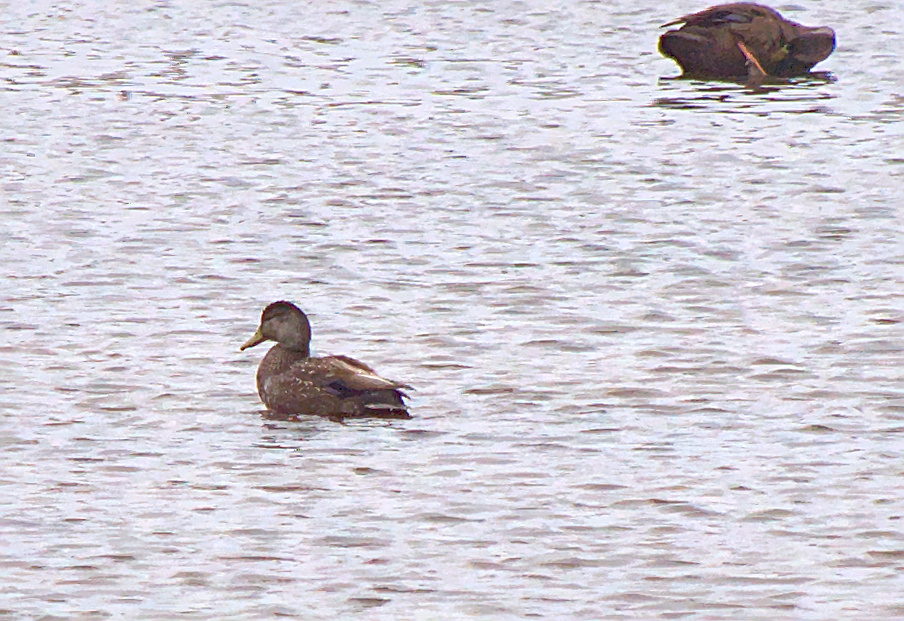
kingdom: Animalia
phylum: Chordata
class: Aves
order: Anseriformes
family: Anatidae
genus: Anas
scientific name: Anas rubripes
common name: American black duck
